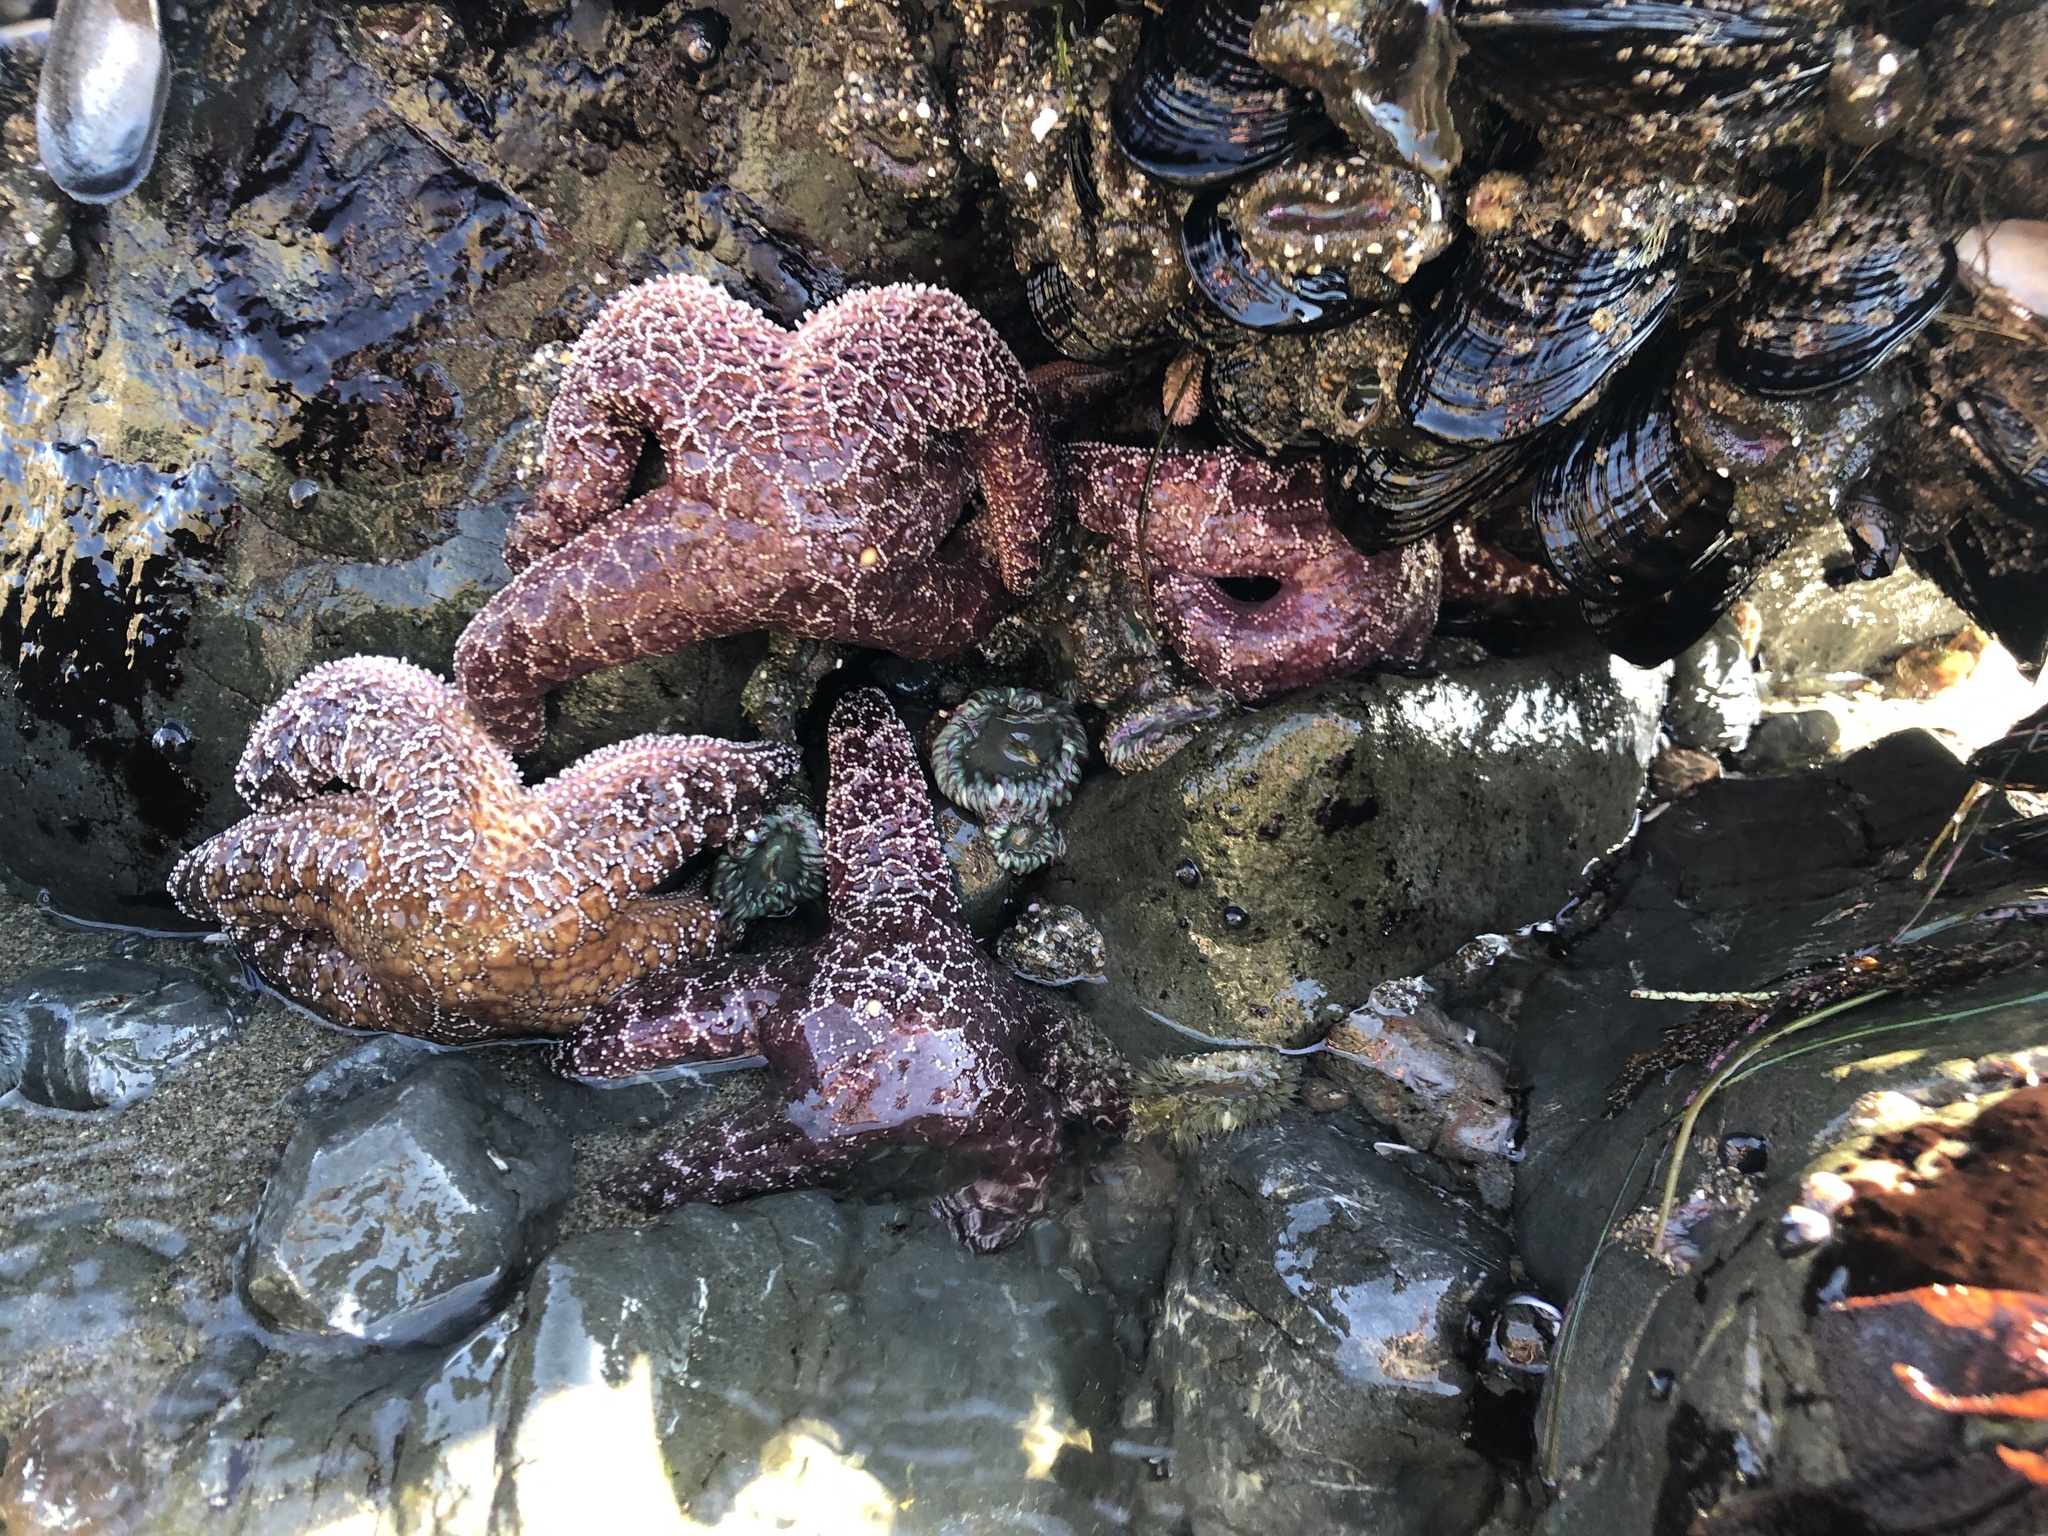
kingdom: Animalia
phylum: Echinodermata
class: Asteroidea
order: Forcipulatida
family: Asteriidae
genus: Pisaster
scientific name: Pisaster ochraceus
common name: Ochre stars
